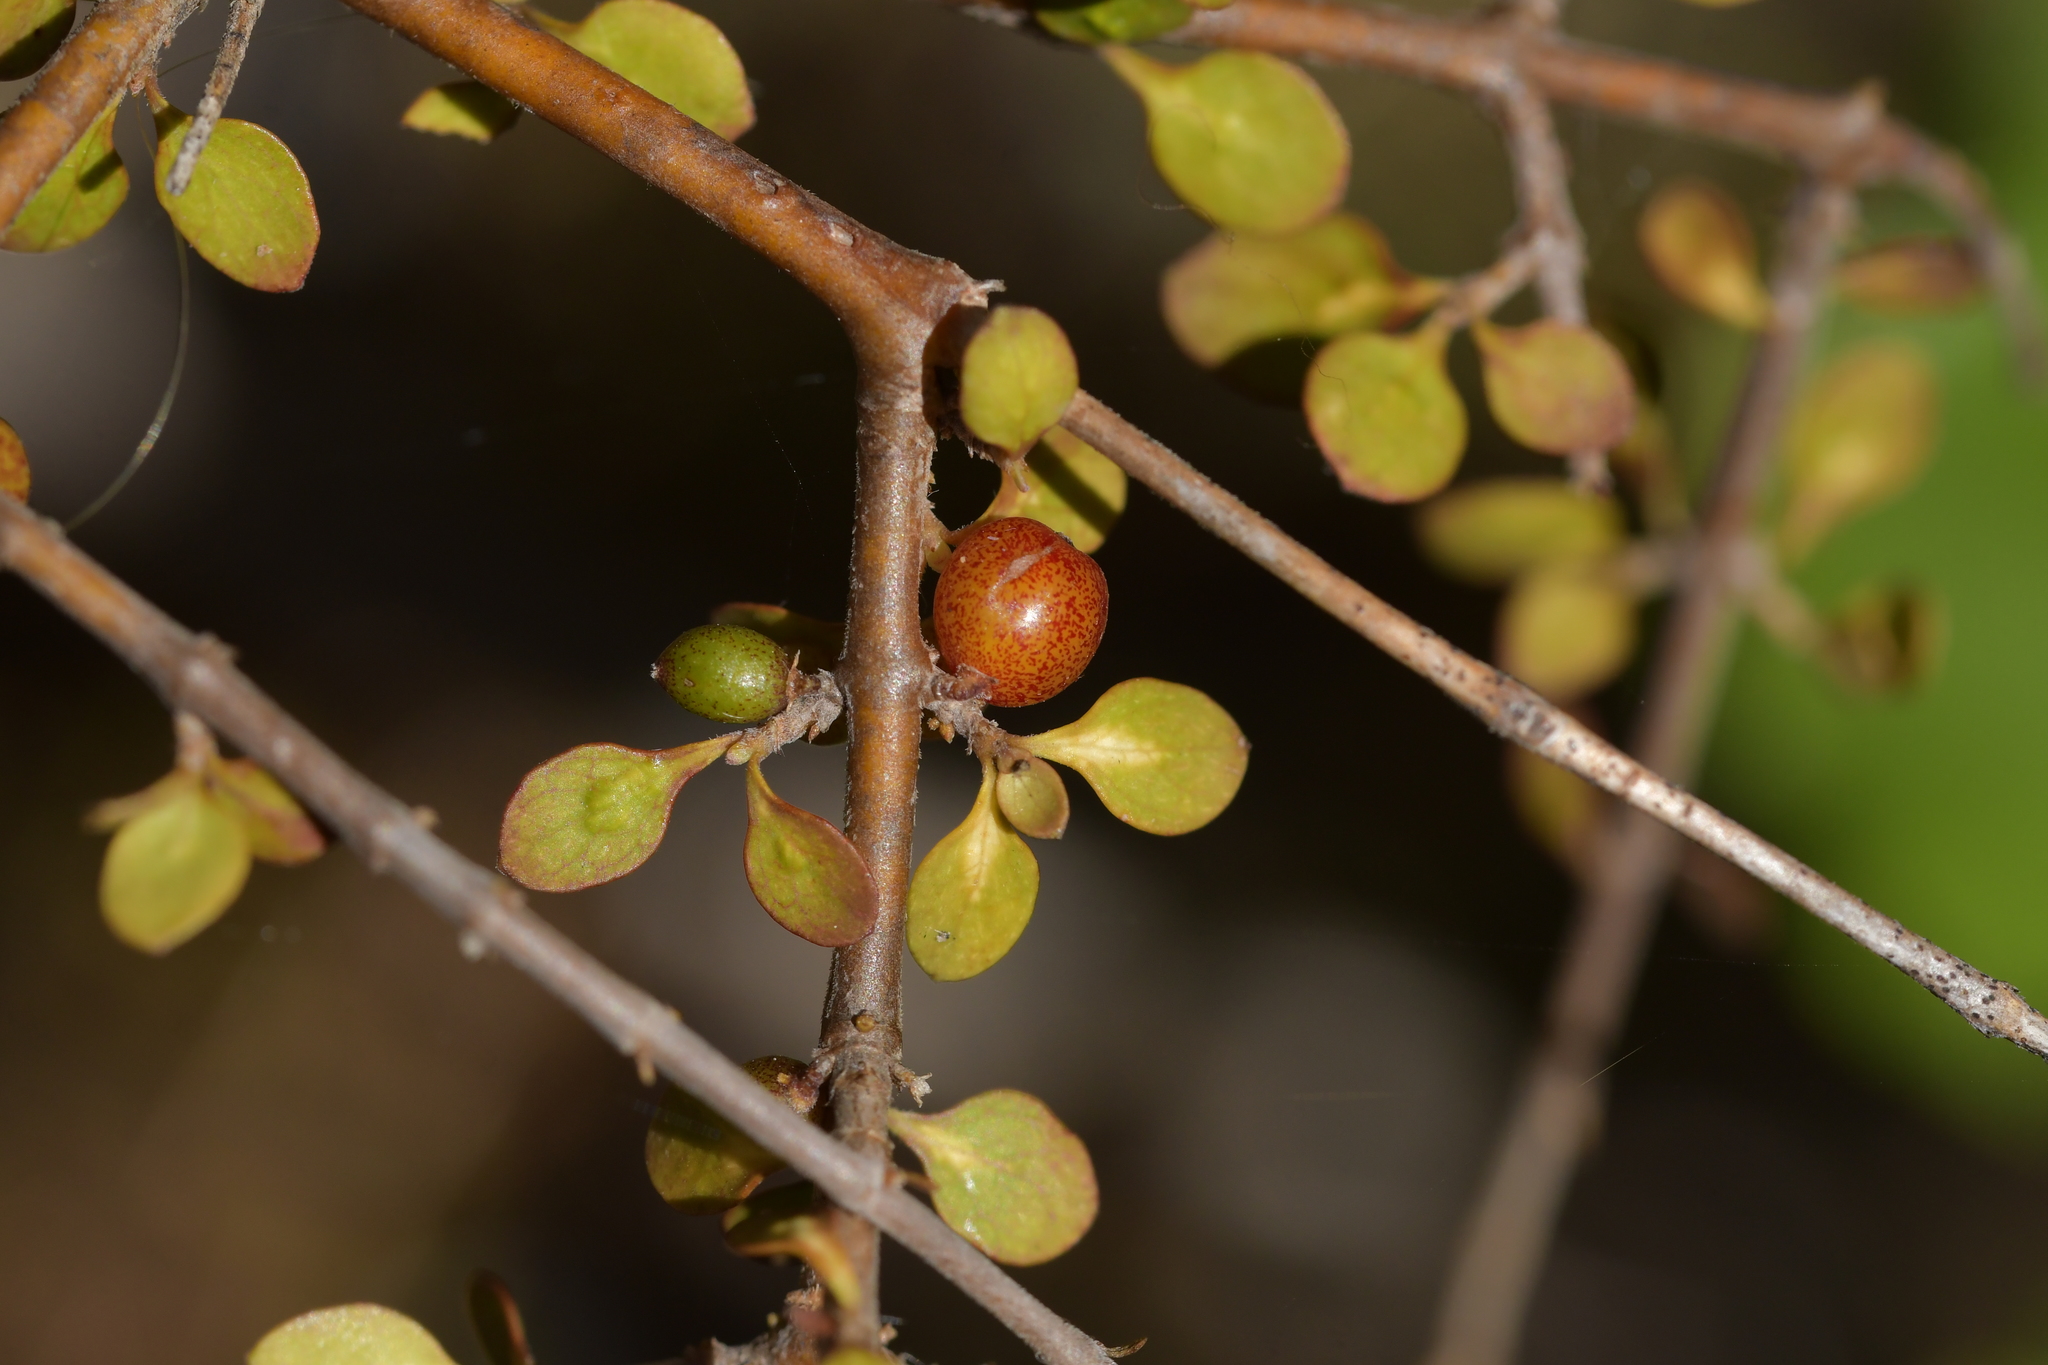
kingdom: Plantae
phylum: Tracheophyta
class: Magnoliopsida
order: Gentianales
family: Rubiaceae
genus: Coprosma
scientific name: Coprosma rhamnoides
